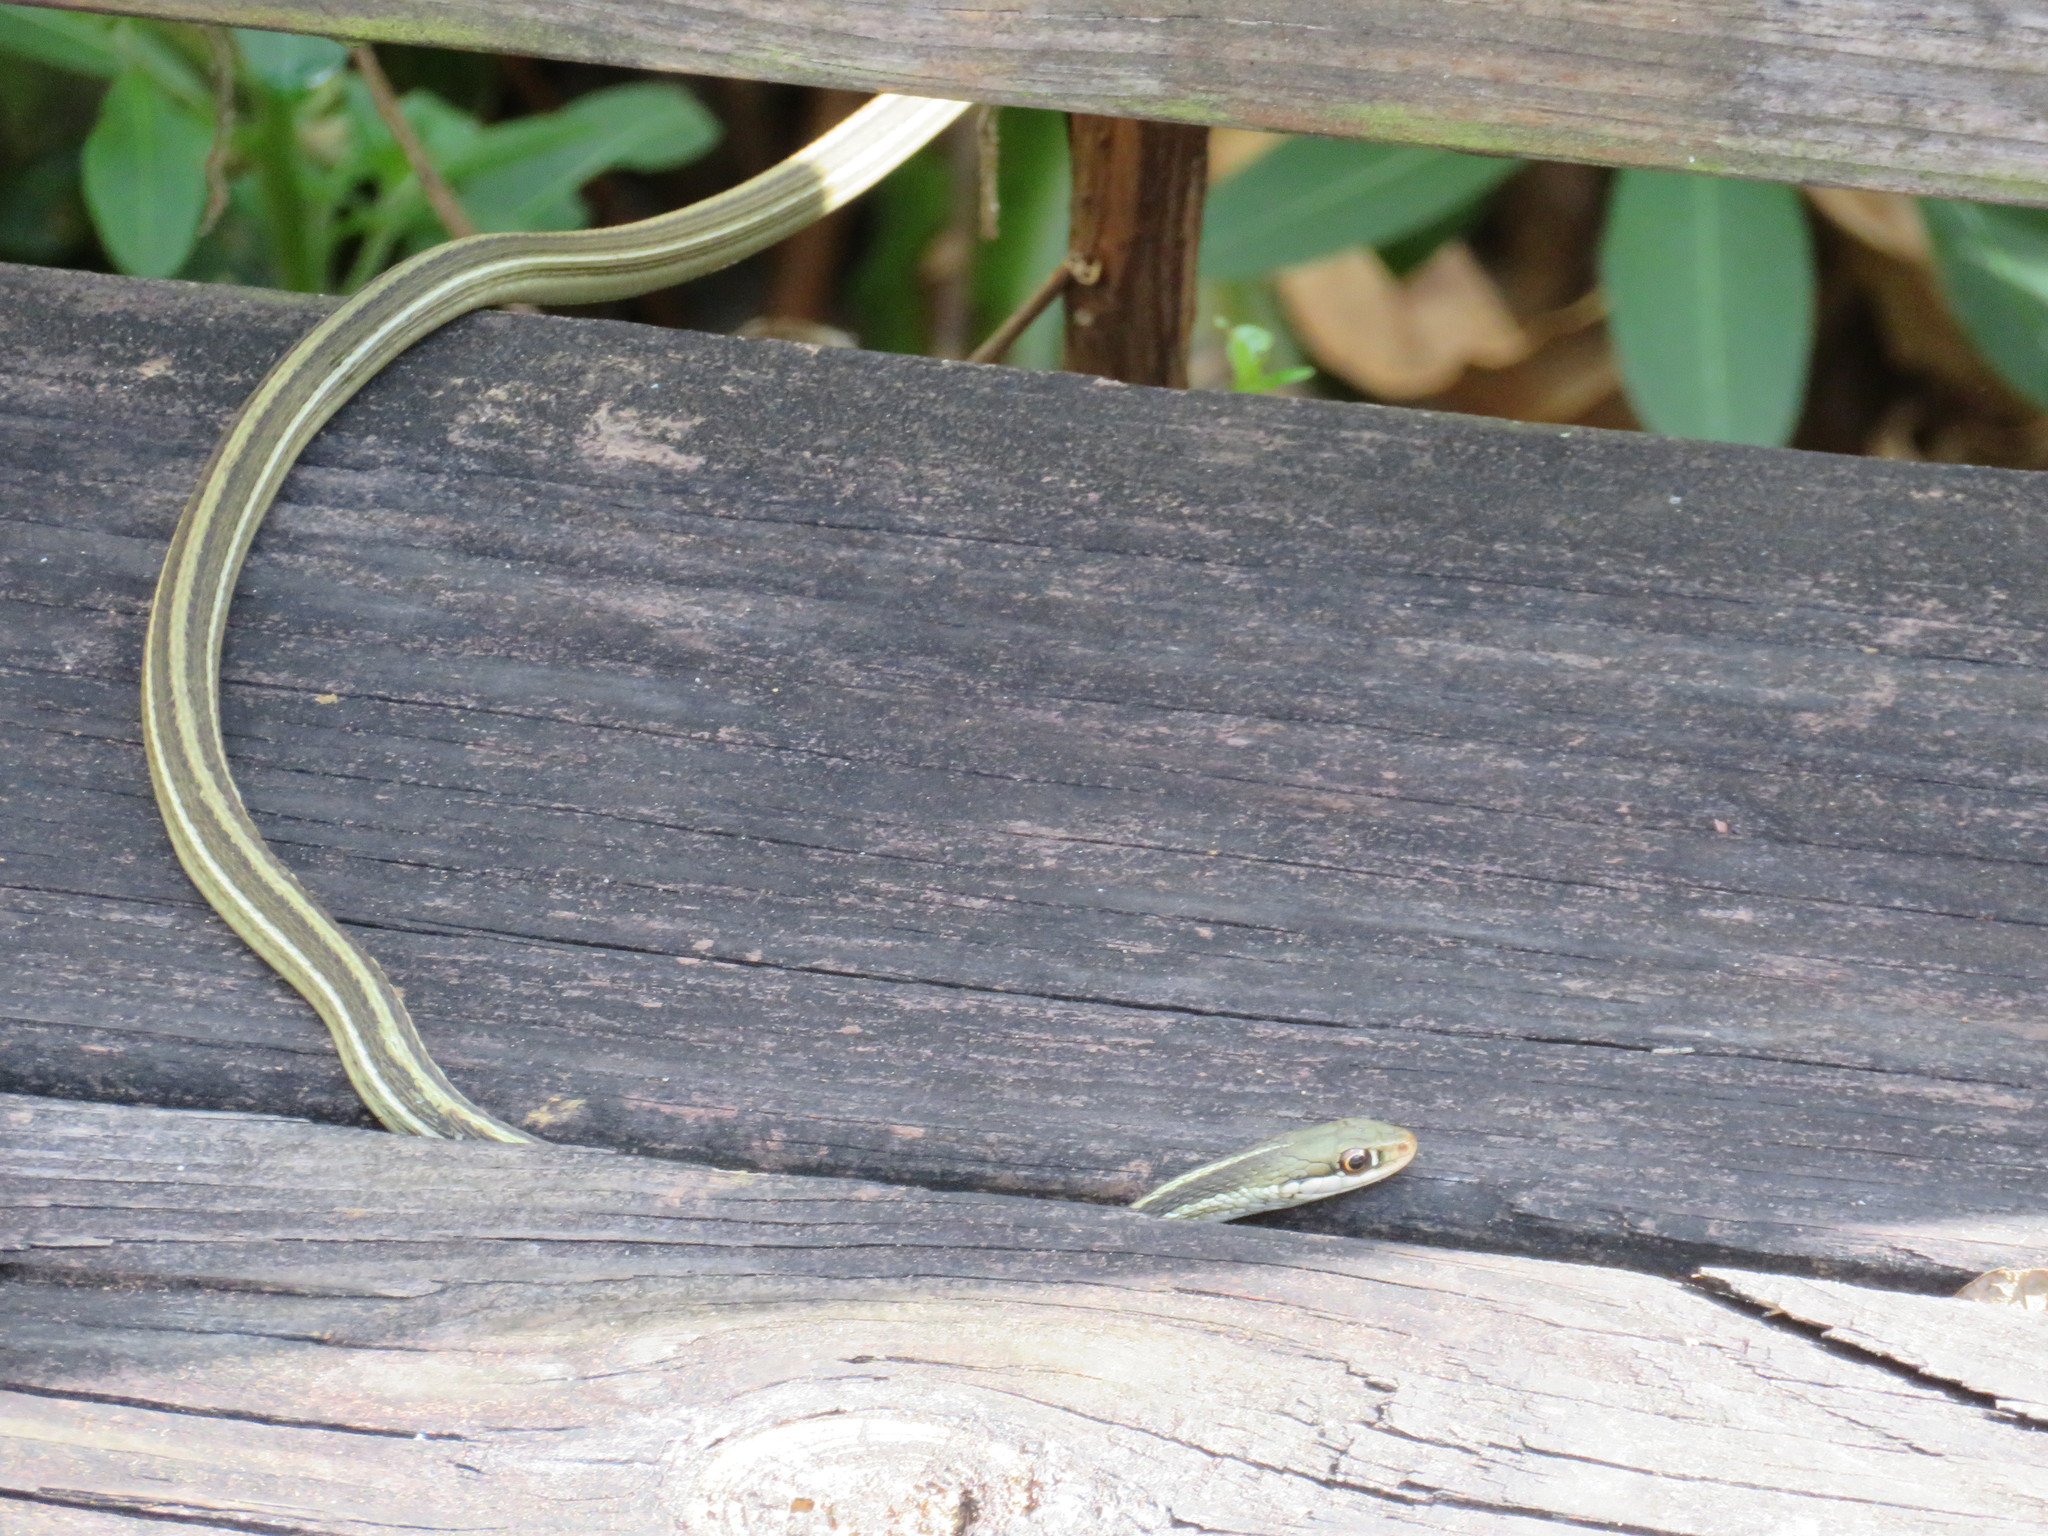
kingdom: Animalia
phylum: Chordata
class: Squamata
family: Colubridae
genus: Thamnophis
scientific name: Thamnophis saurita
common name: Eastern ribbonsnake
